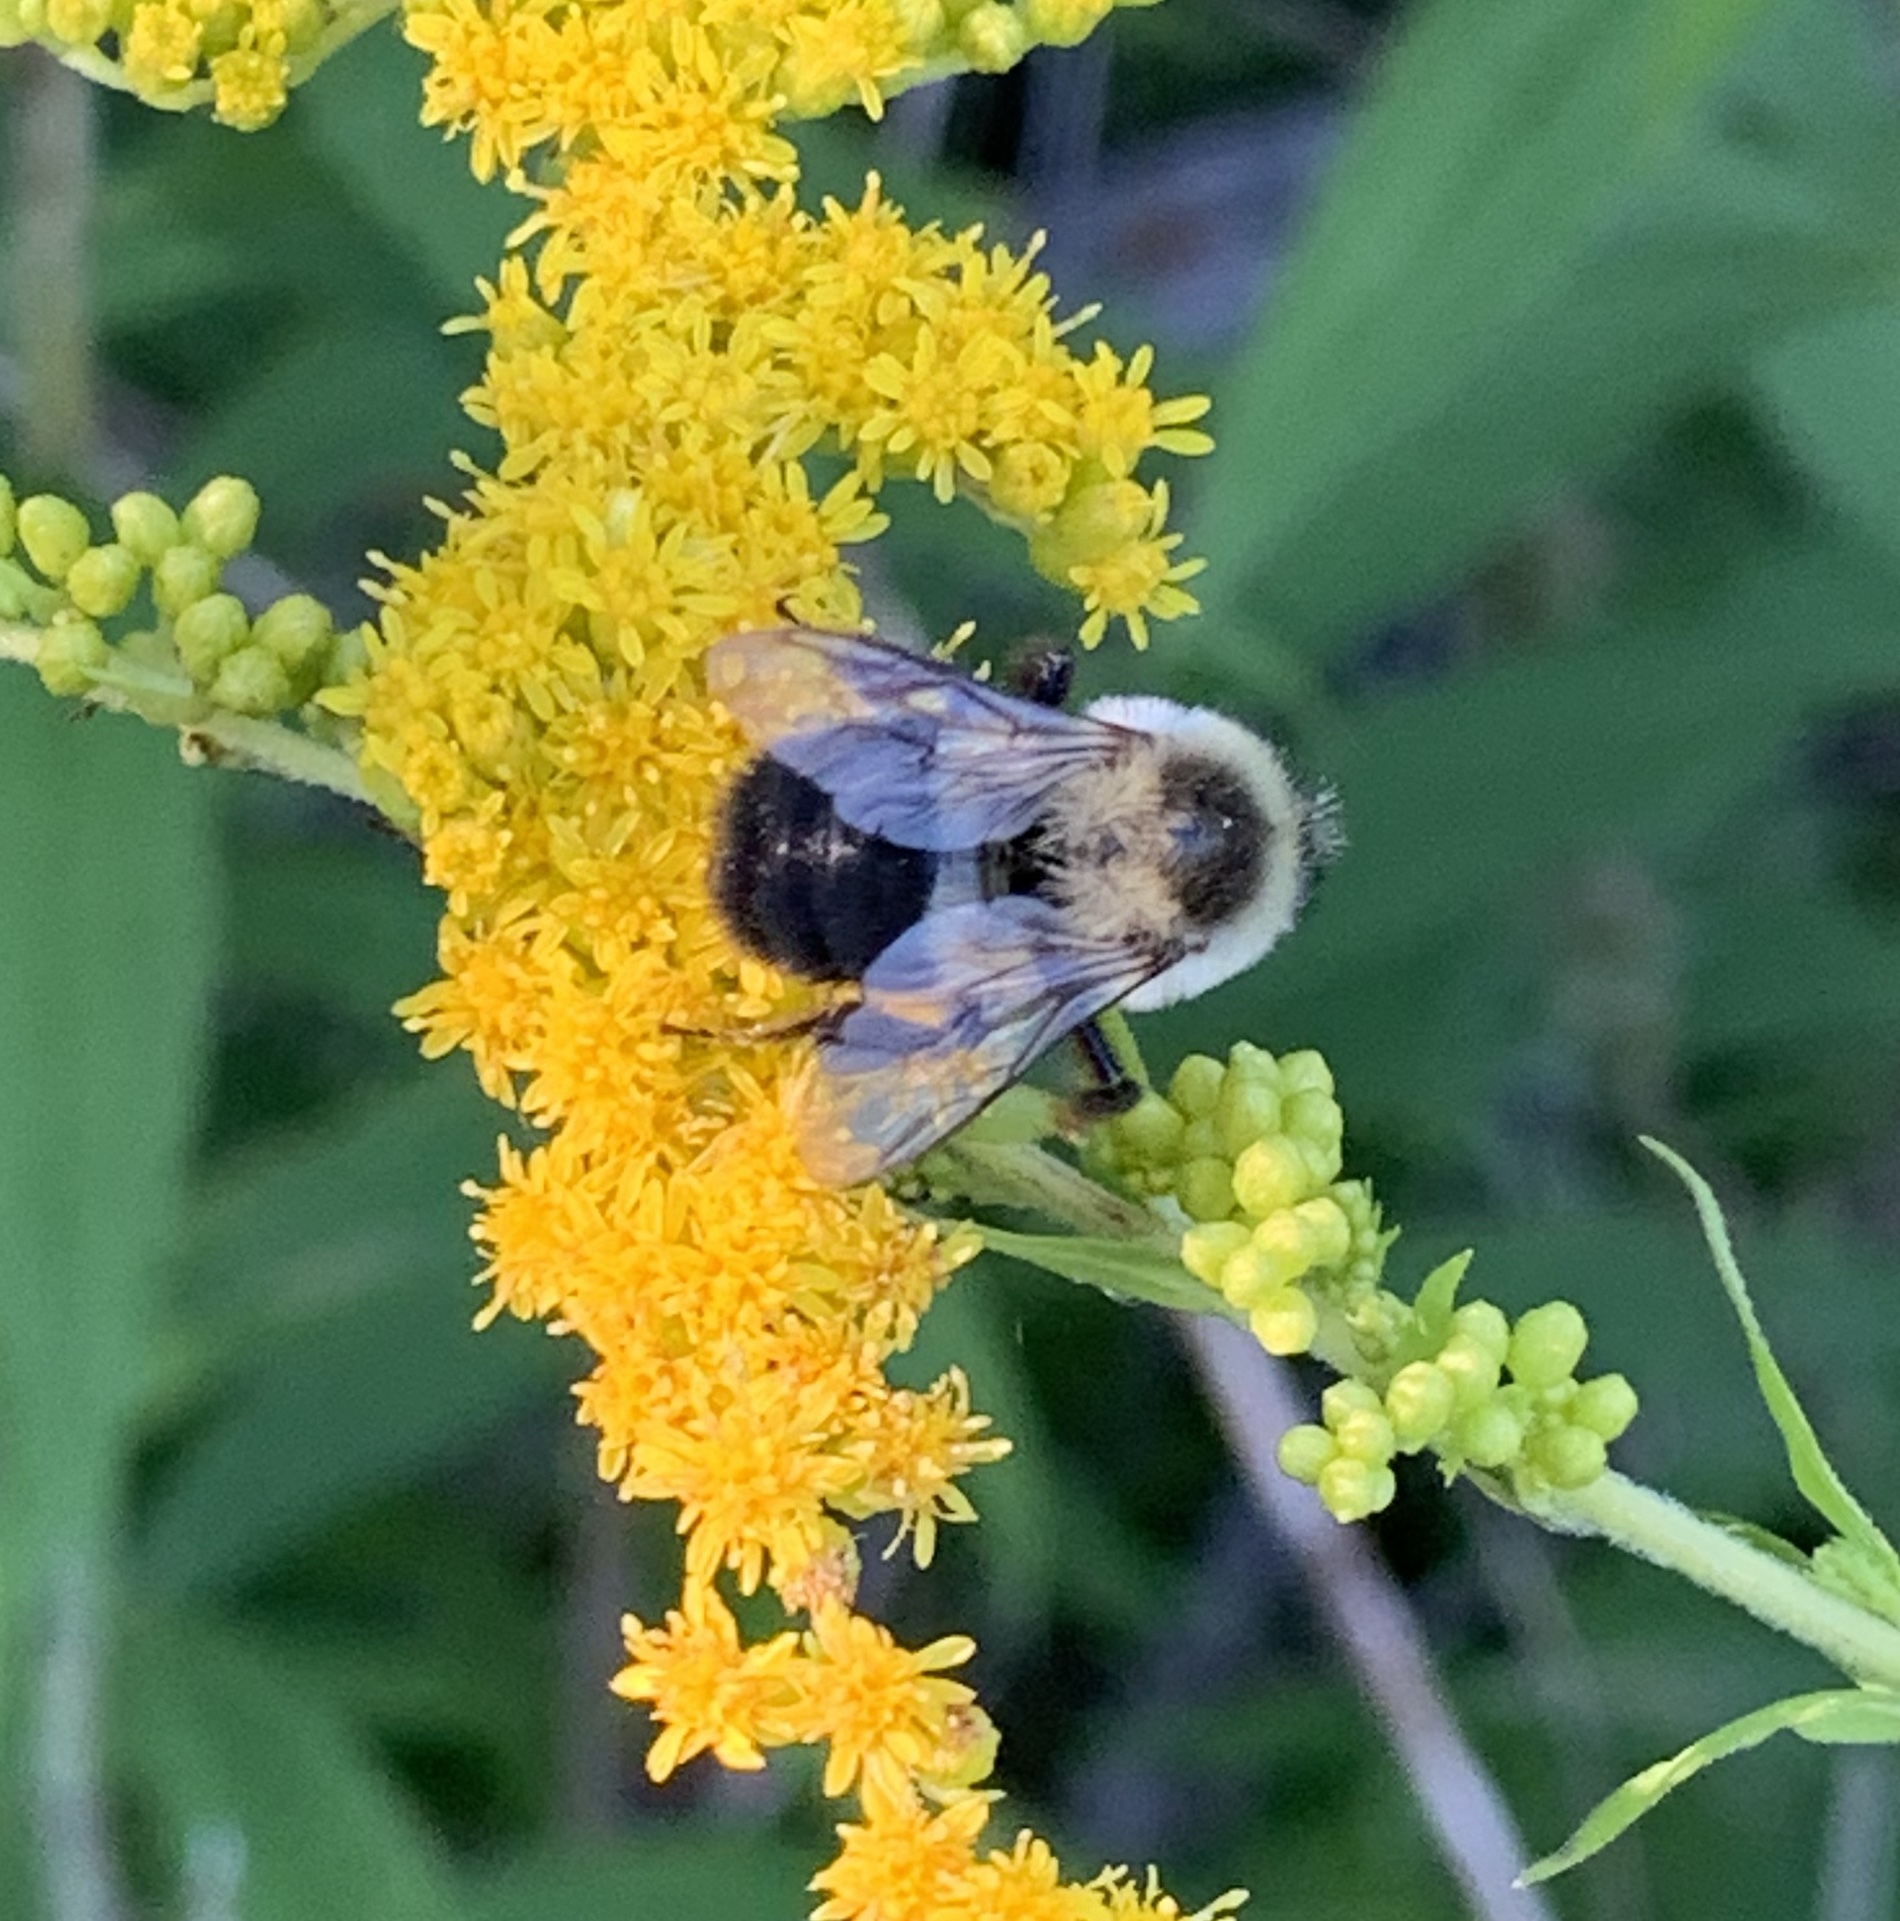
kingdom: Animalia
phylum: Arthropoda
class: Insecta
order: Hymenoptera
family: Apidae
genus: Bombus
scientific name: Bombus impatiens
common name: Common eastern bumble bee
